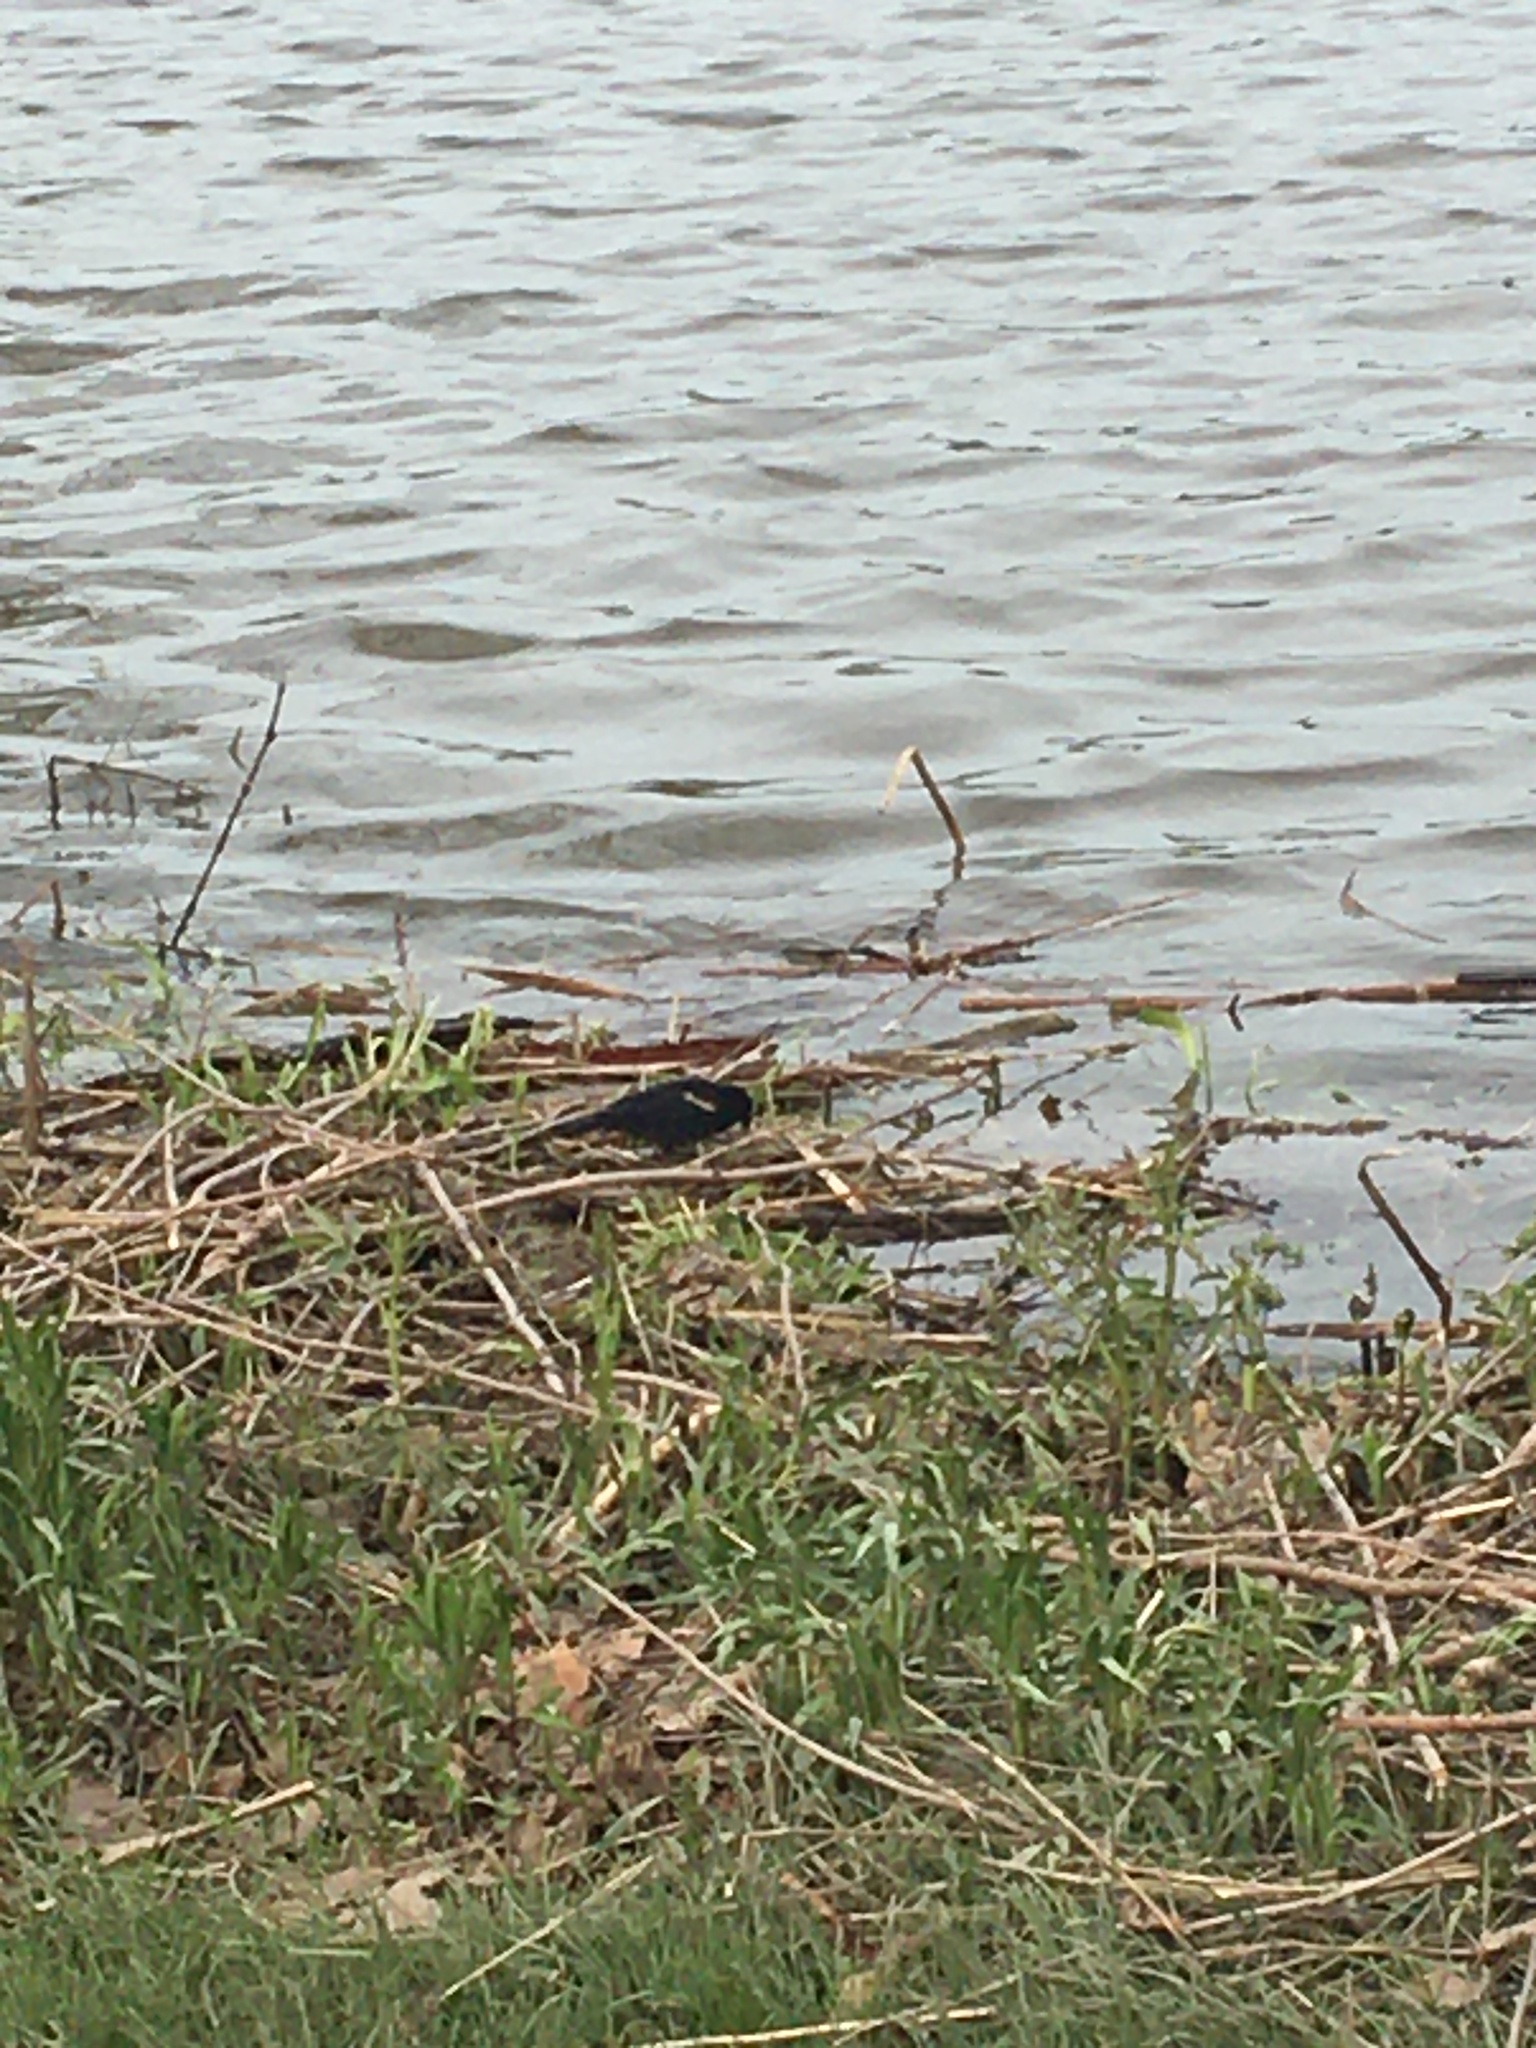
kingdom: Animalia
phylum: Chordata
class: Aves
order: Passeriformes
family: Icteridae
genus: Agelaius
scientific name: Agelaius phoeniceus
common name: Red-winged blackbird
